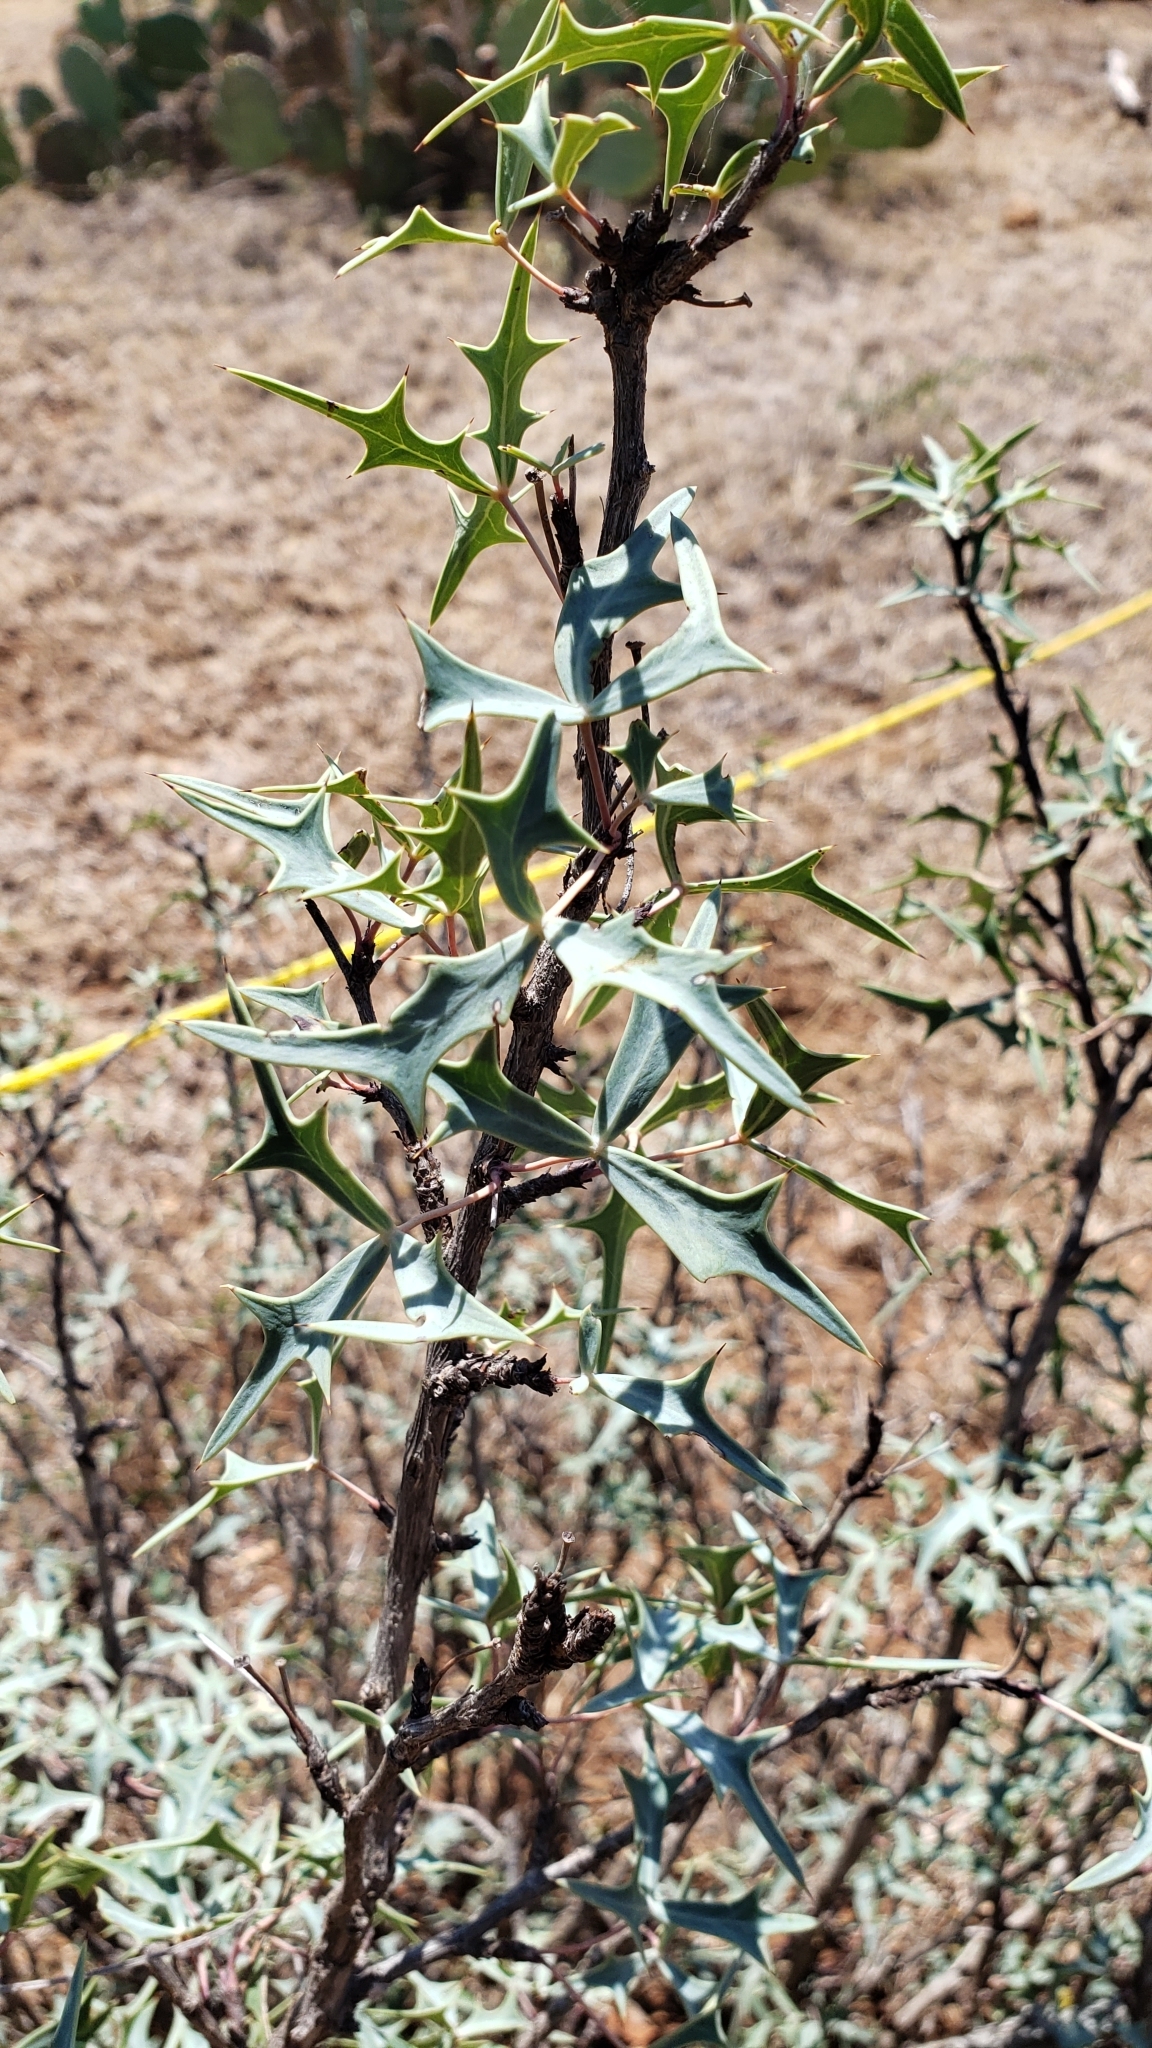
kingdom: Plantae
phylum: Tracheophyta
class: Magnoliopsida
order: Ranunculales
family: Berberidaceae
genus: Alloberberis
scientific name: Alloberberis trifoliolata
